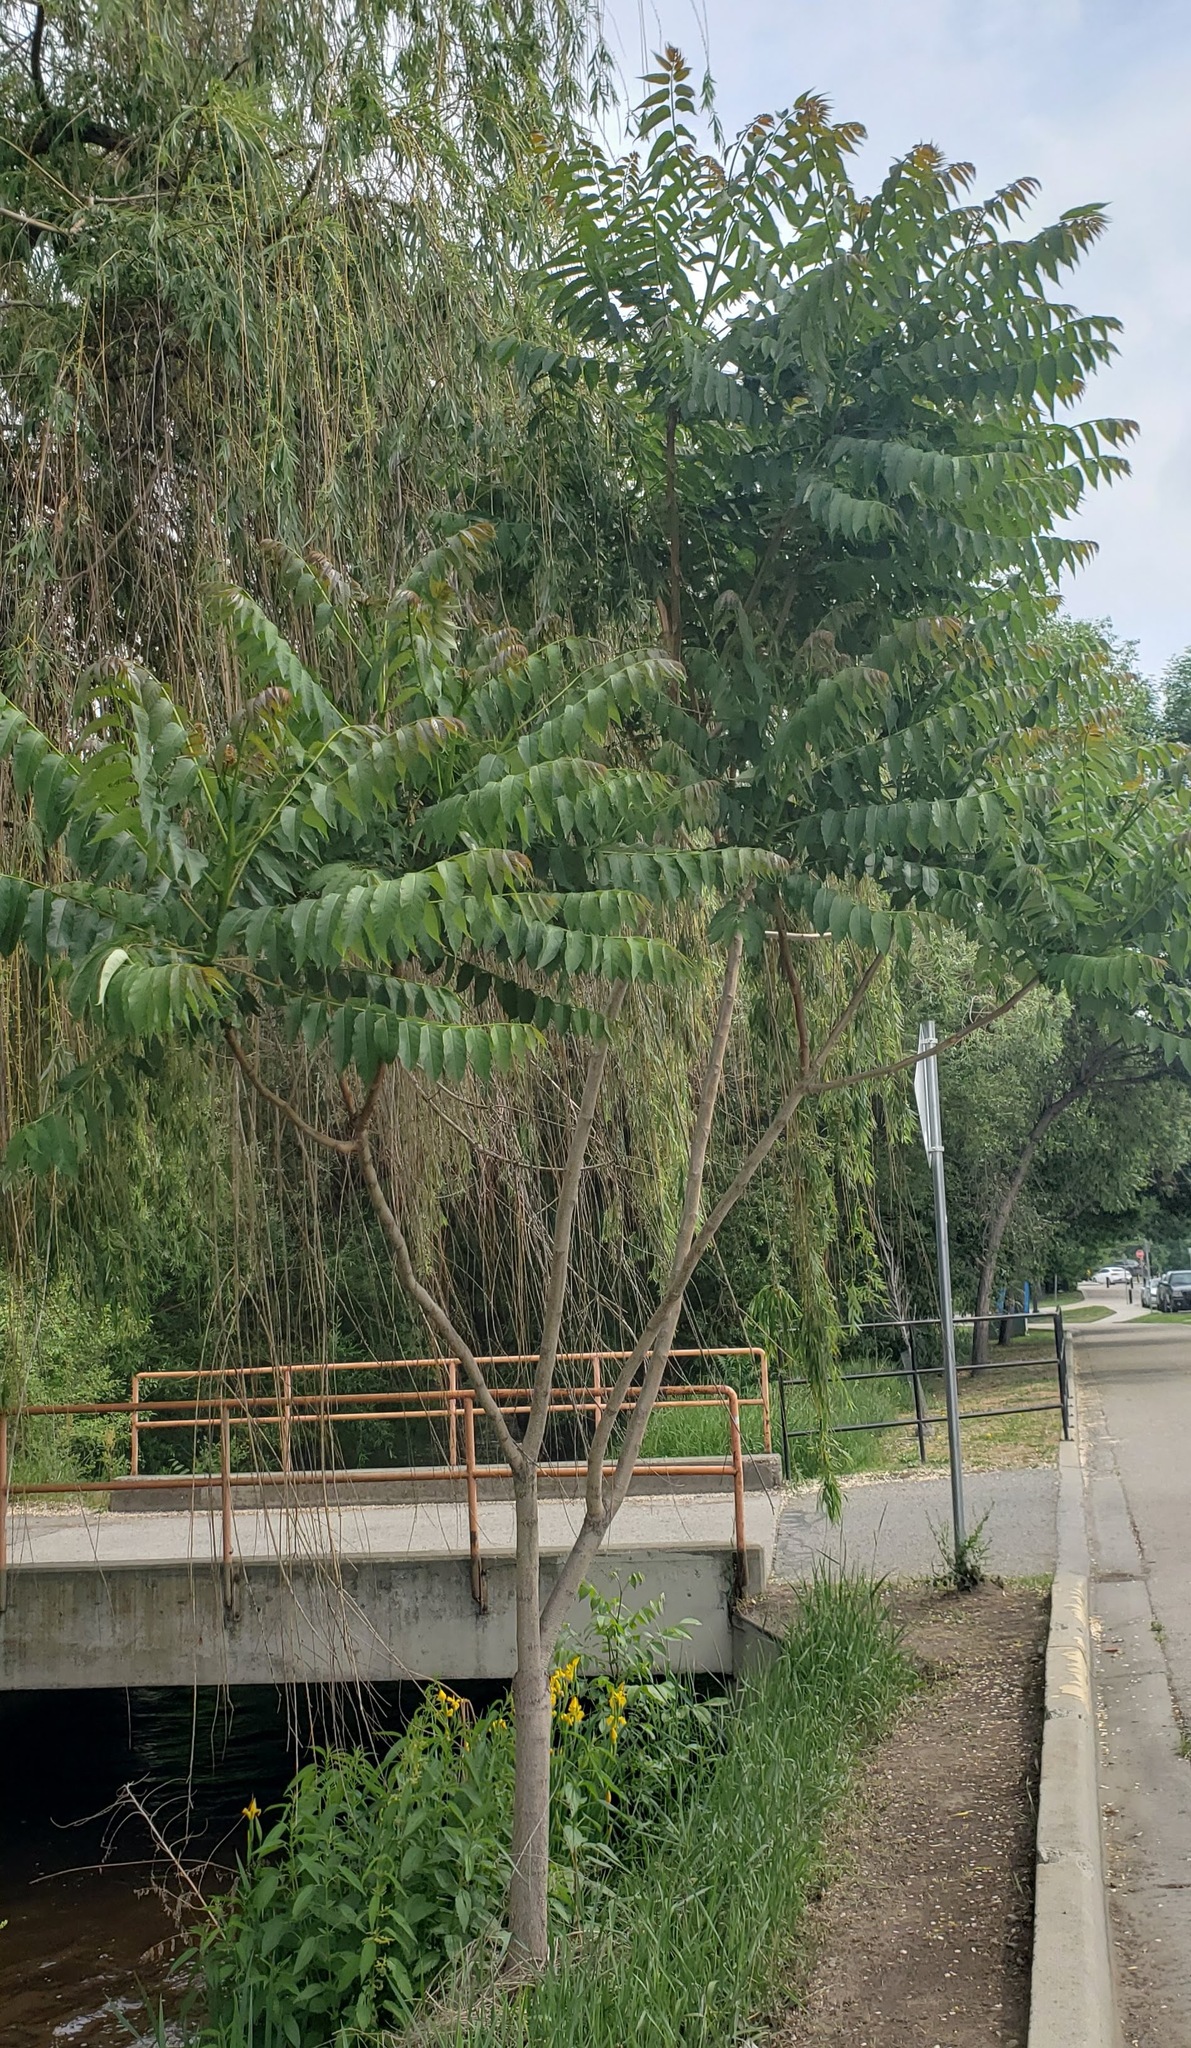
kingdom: Plantae
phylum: Tracheophyta
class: Magnoliopsida
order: Sapindales
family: Simaroubaceae
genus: Ailanthus
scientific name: Ailanthus altissima
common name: Tree-of-heaven
